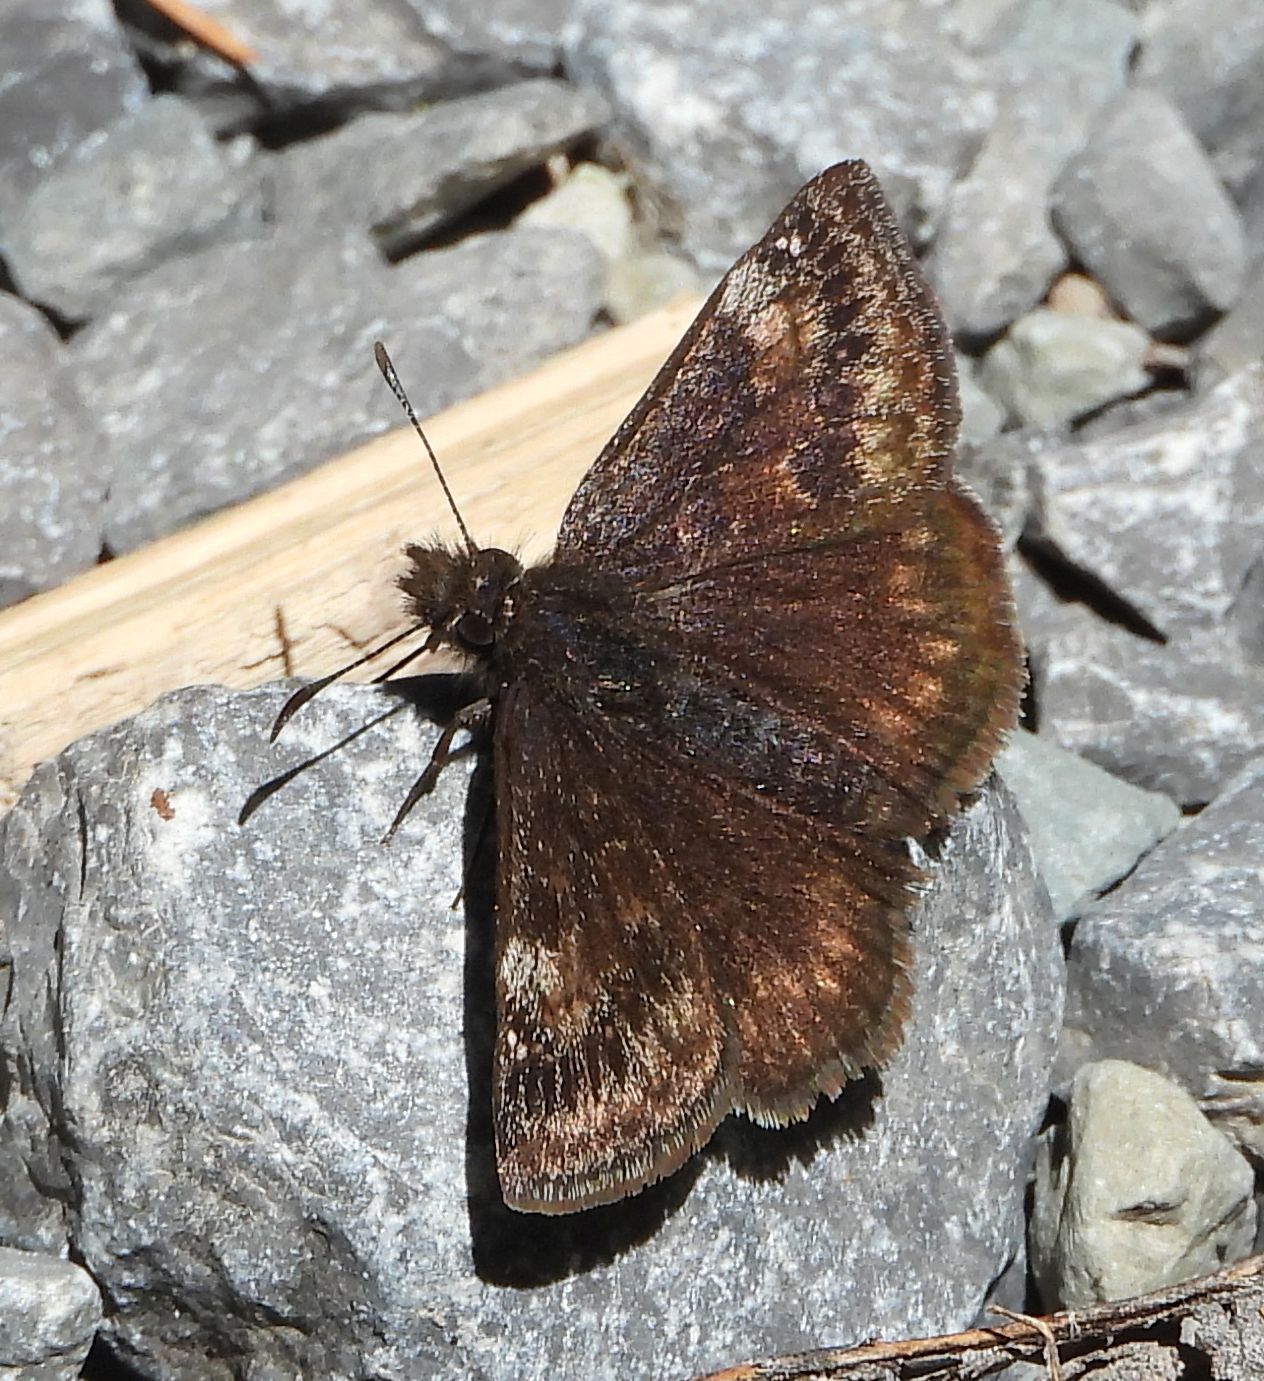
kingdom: Animalia
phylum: Arthropoda
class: Insecta
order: Lepidoptera
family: Hesperiidae
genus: Erynnis
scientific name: Erynnis lucilius
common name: Columbine duskywing
